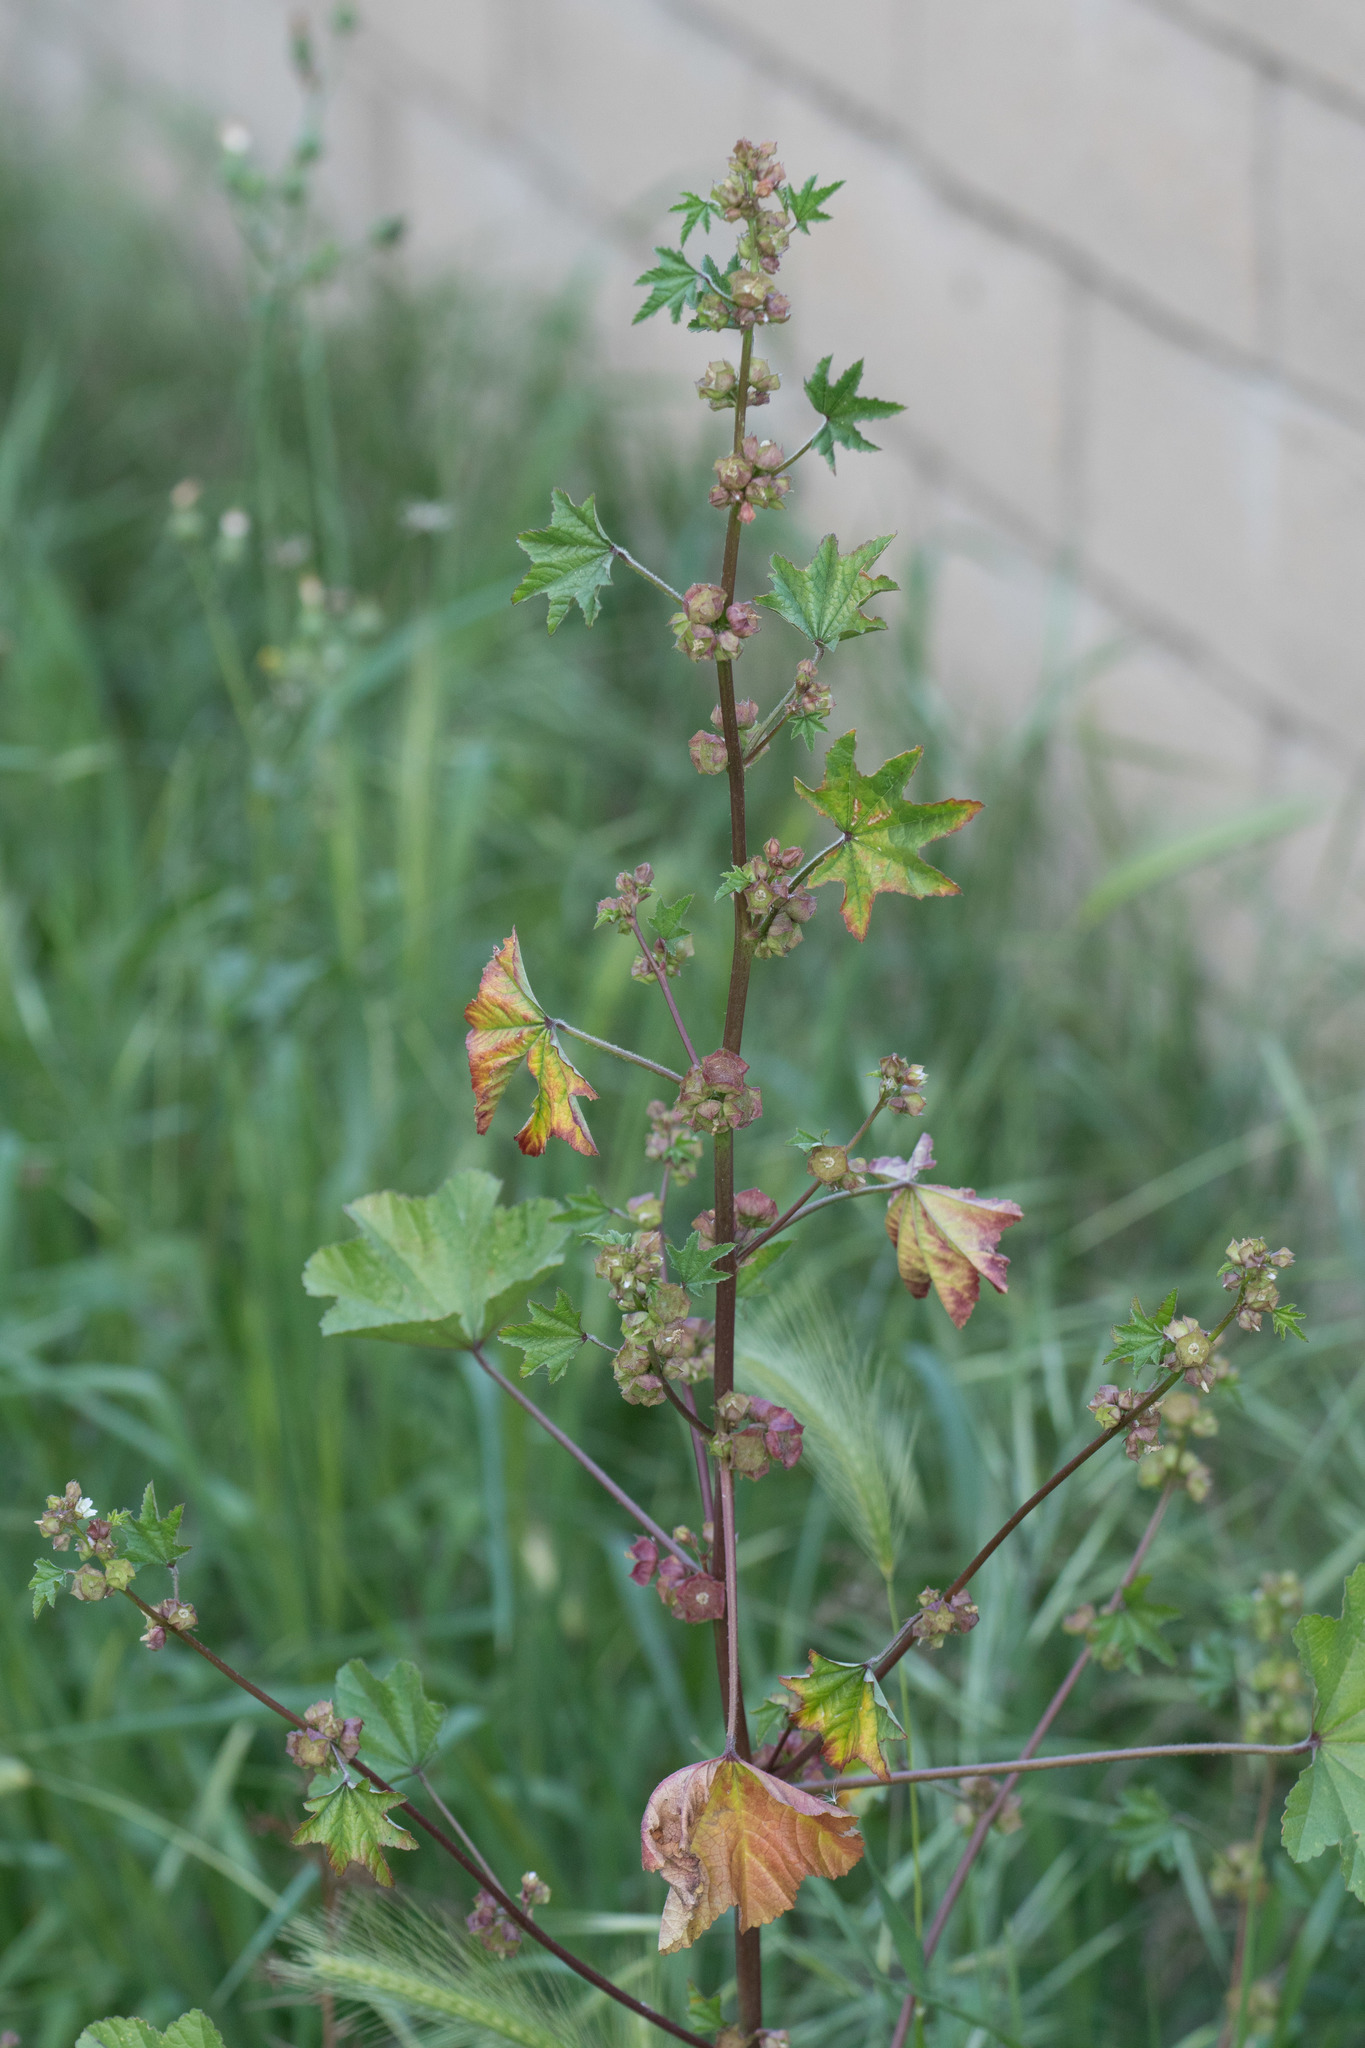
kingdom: Plantae
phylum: Tracheophyta
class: Magnoliopsida
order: Malvales
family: Malvaceae
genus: Malva
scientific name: Malva parviflora
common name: Least mallow
